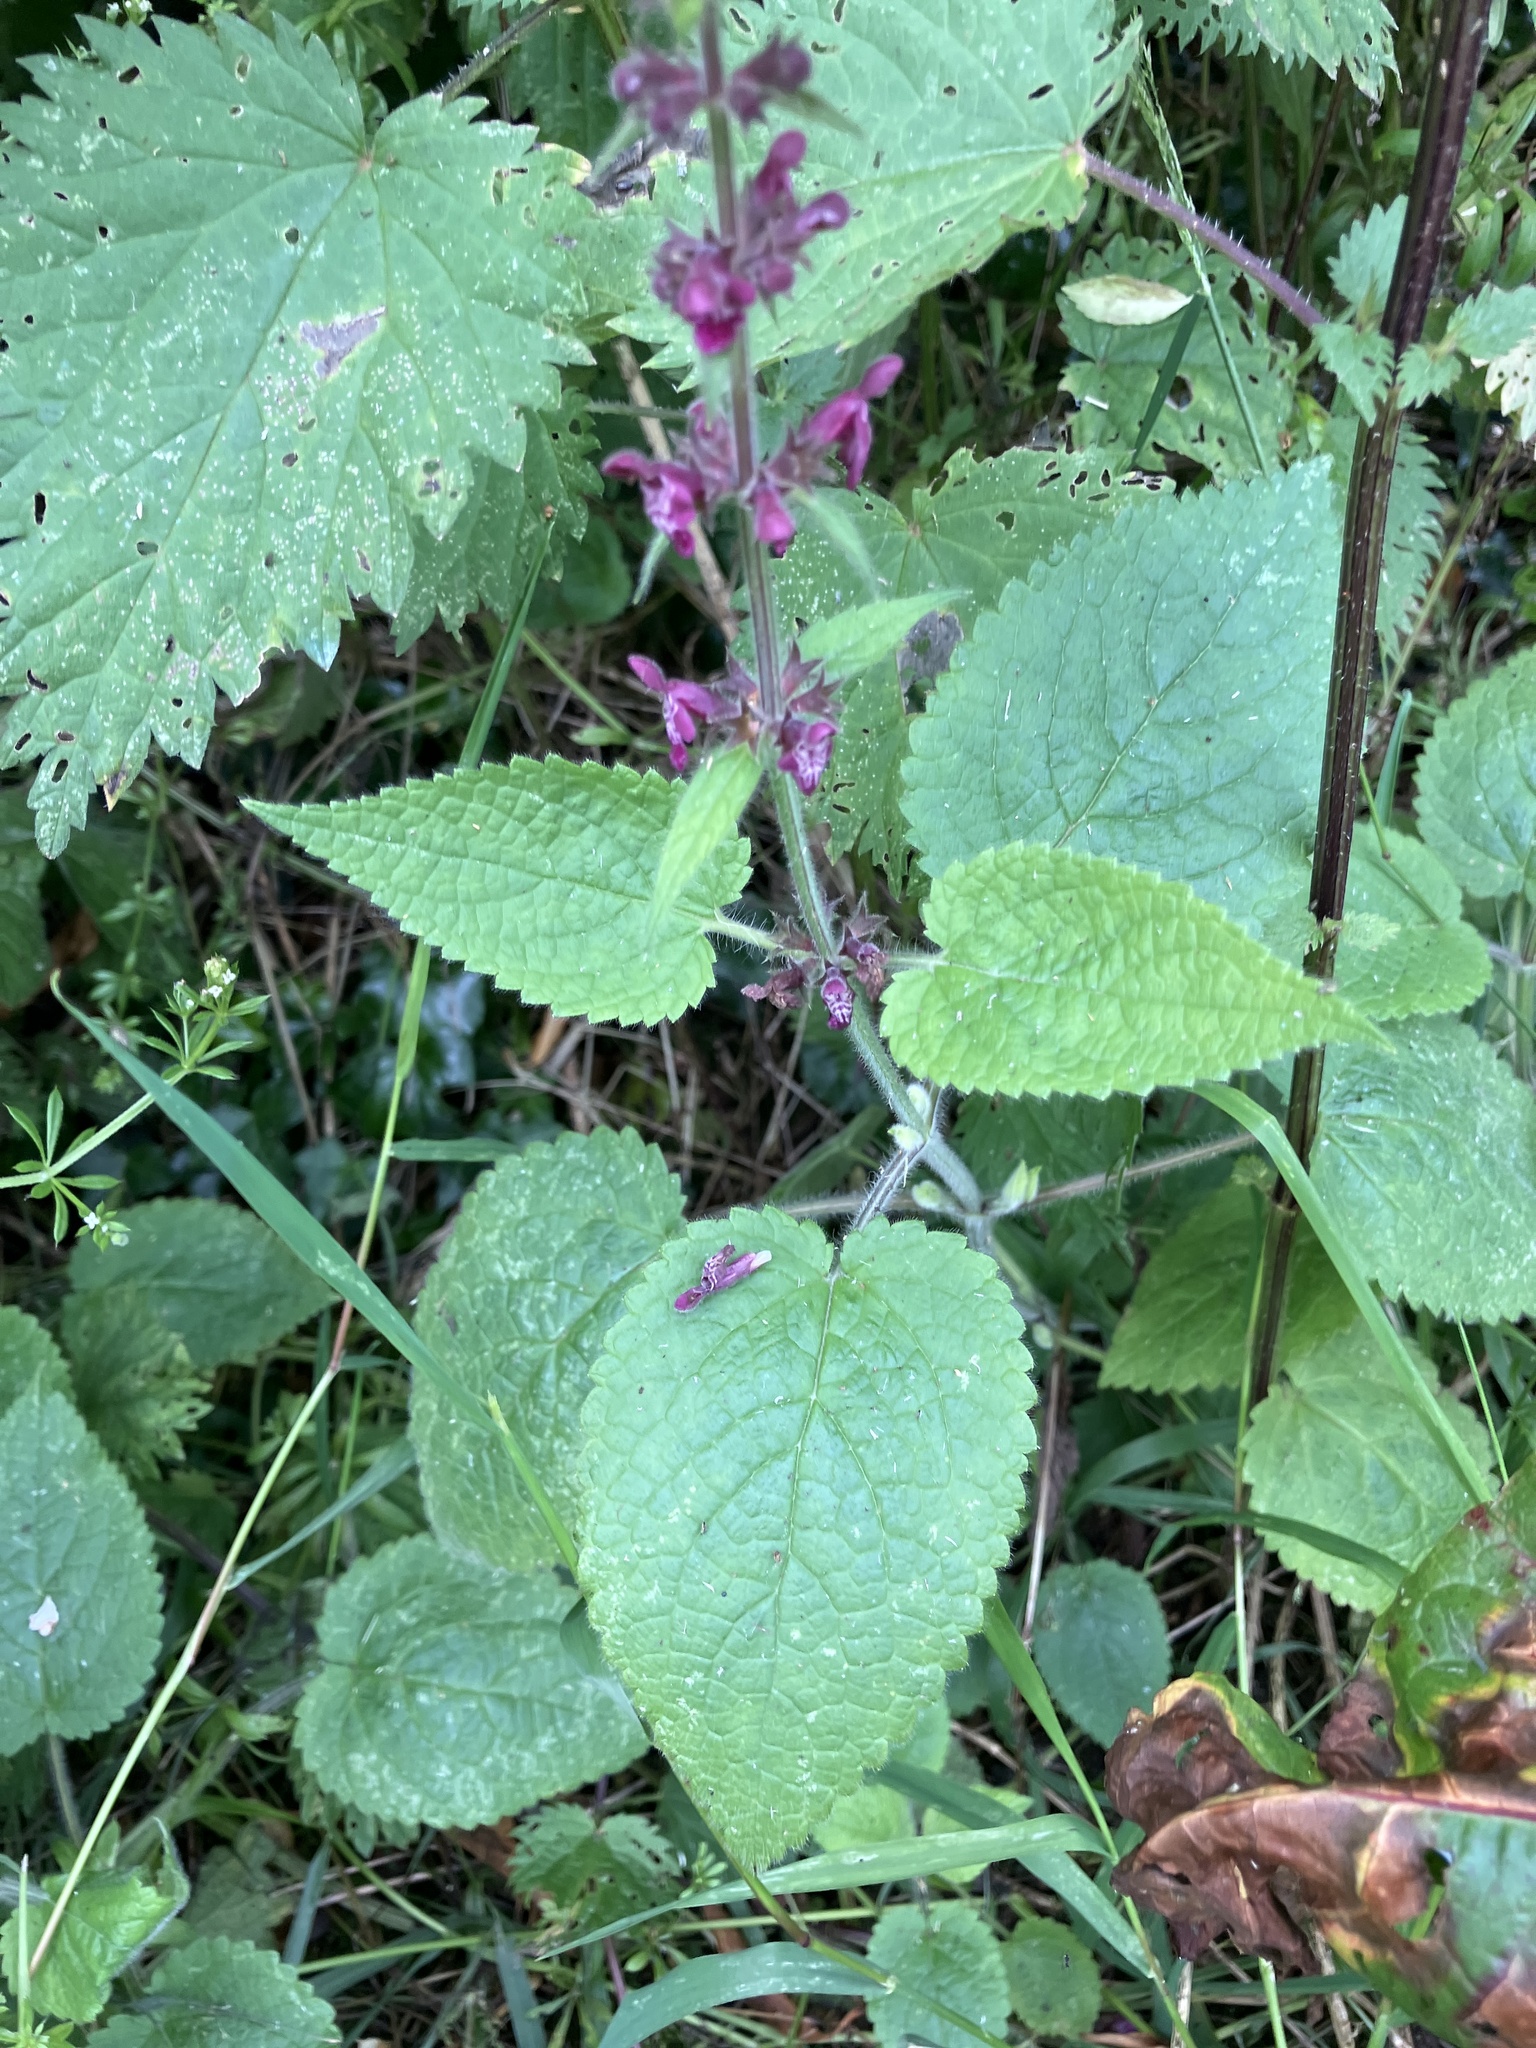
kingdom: Plantae
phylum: Tracheophyta
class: Magnoliopsida
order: Lamiales
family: Lamiaceae
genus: Stachys
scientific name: Stachys sylvatica
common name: Hedge woundwort
